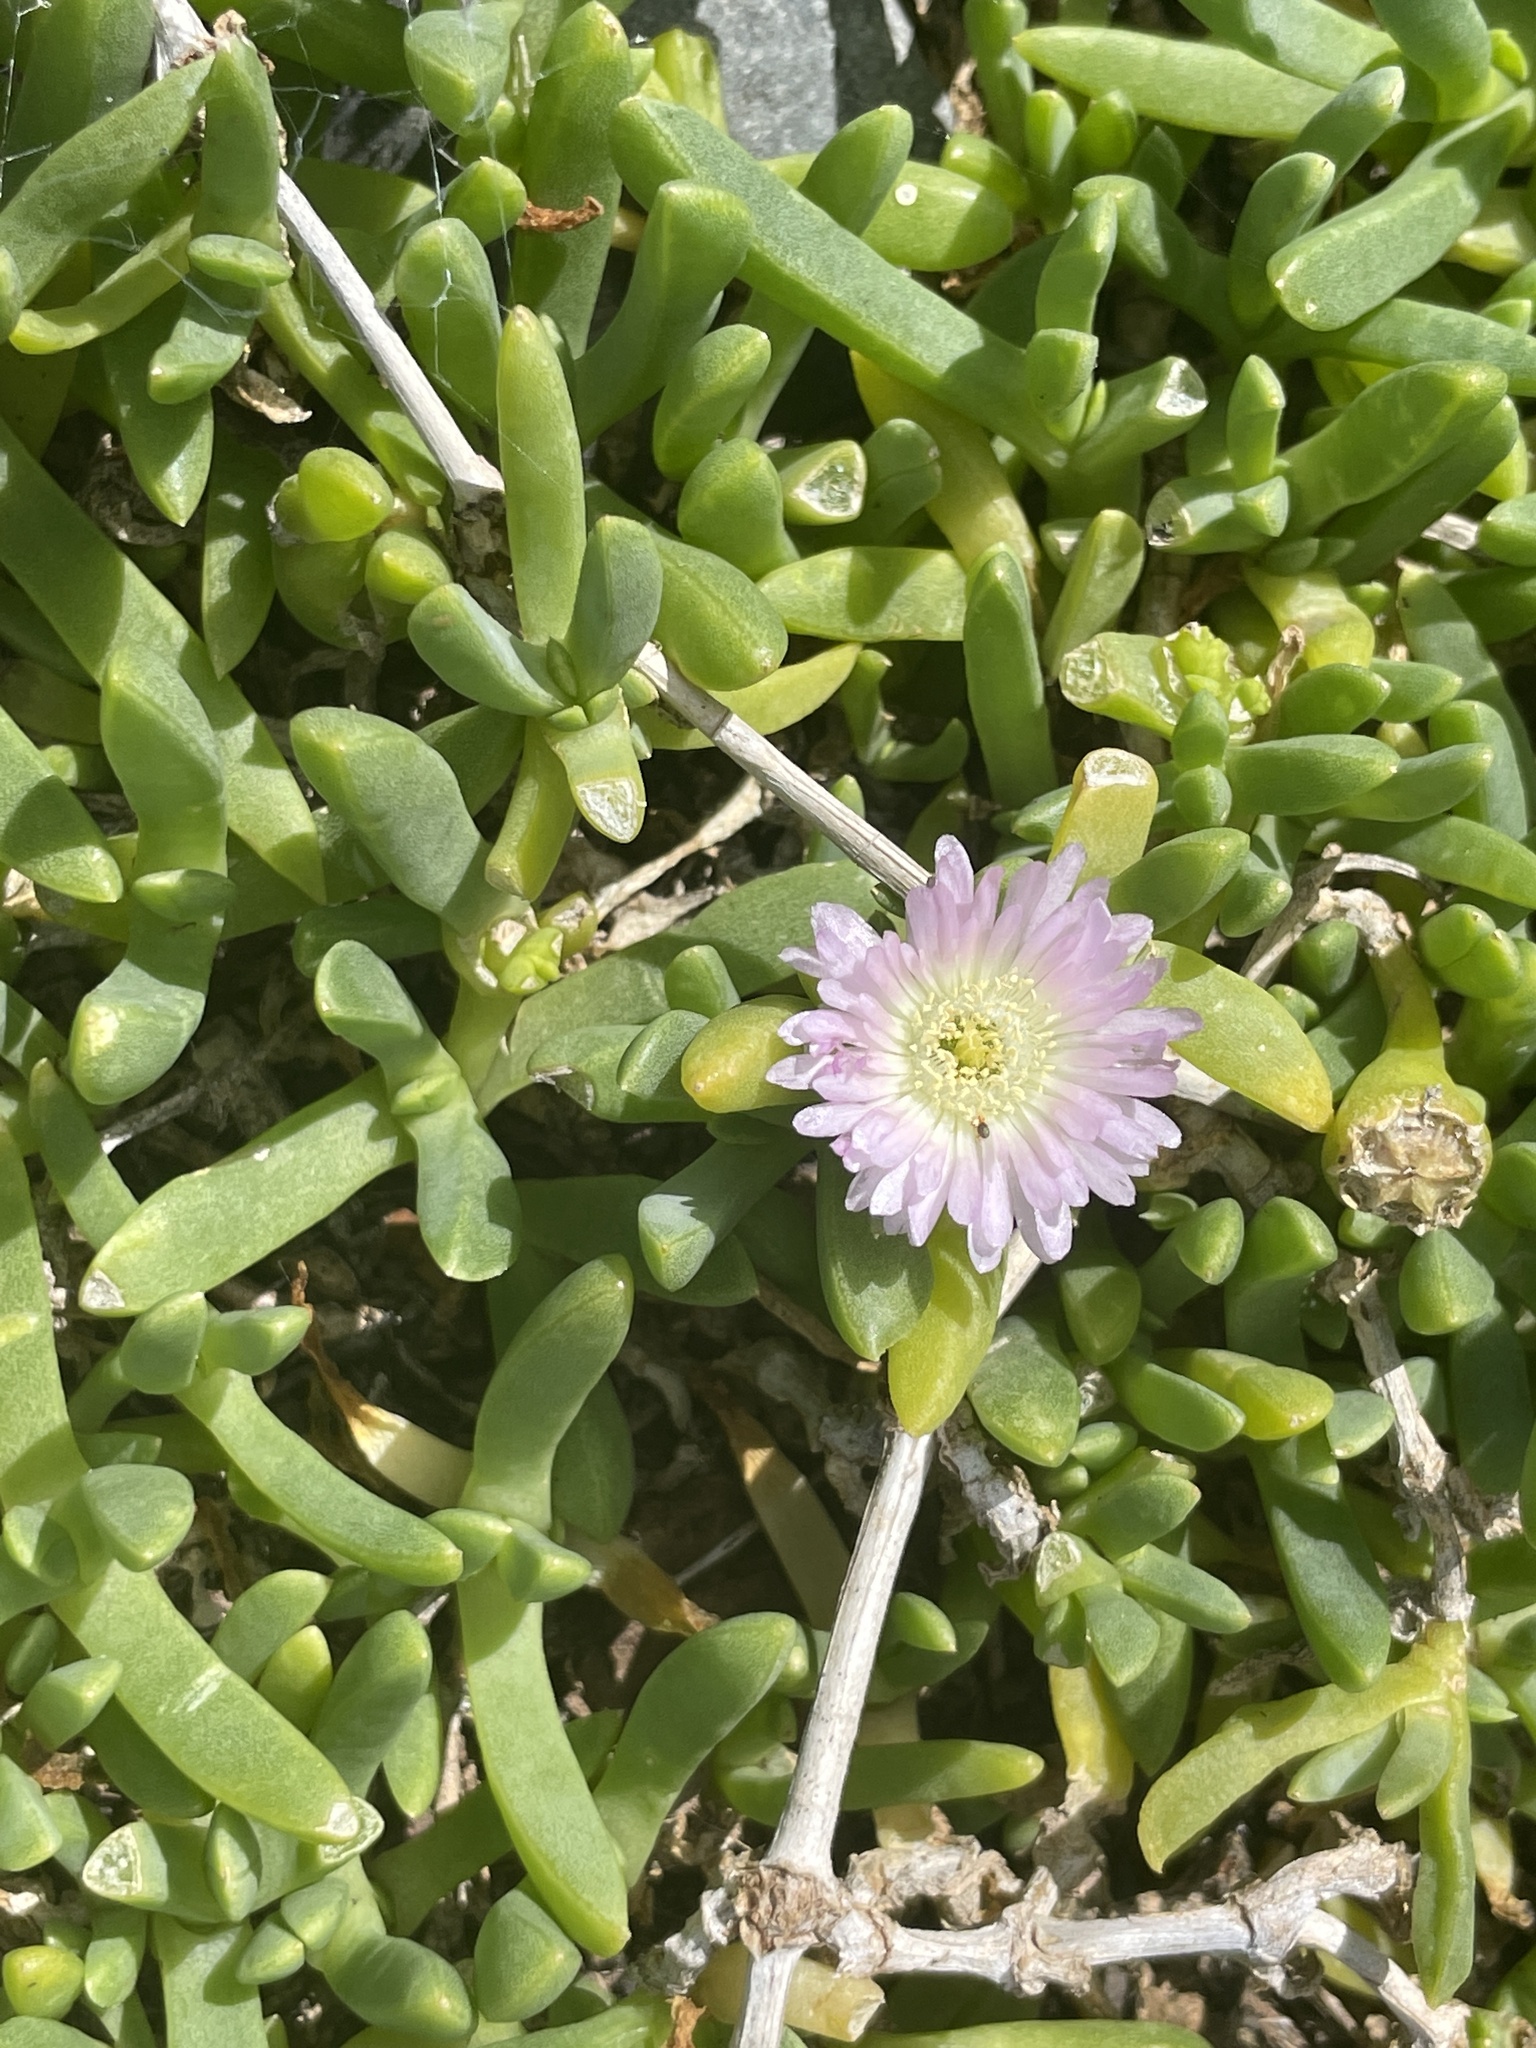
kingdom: Plantae
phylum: Tracheophyta
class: Magnoliopsida
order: Caryophyllales
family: Aizoaceae
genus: Disphyma
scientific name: Disphyma australe
